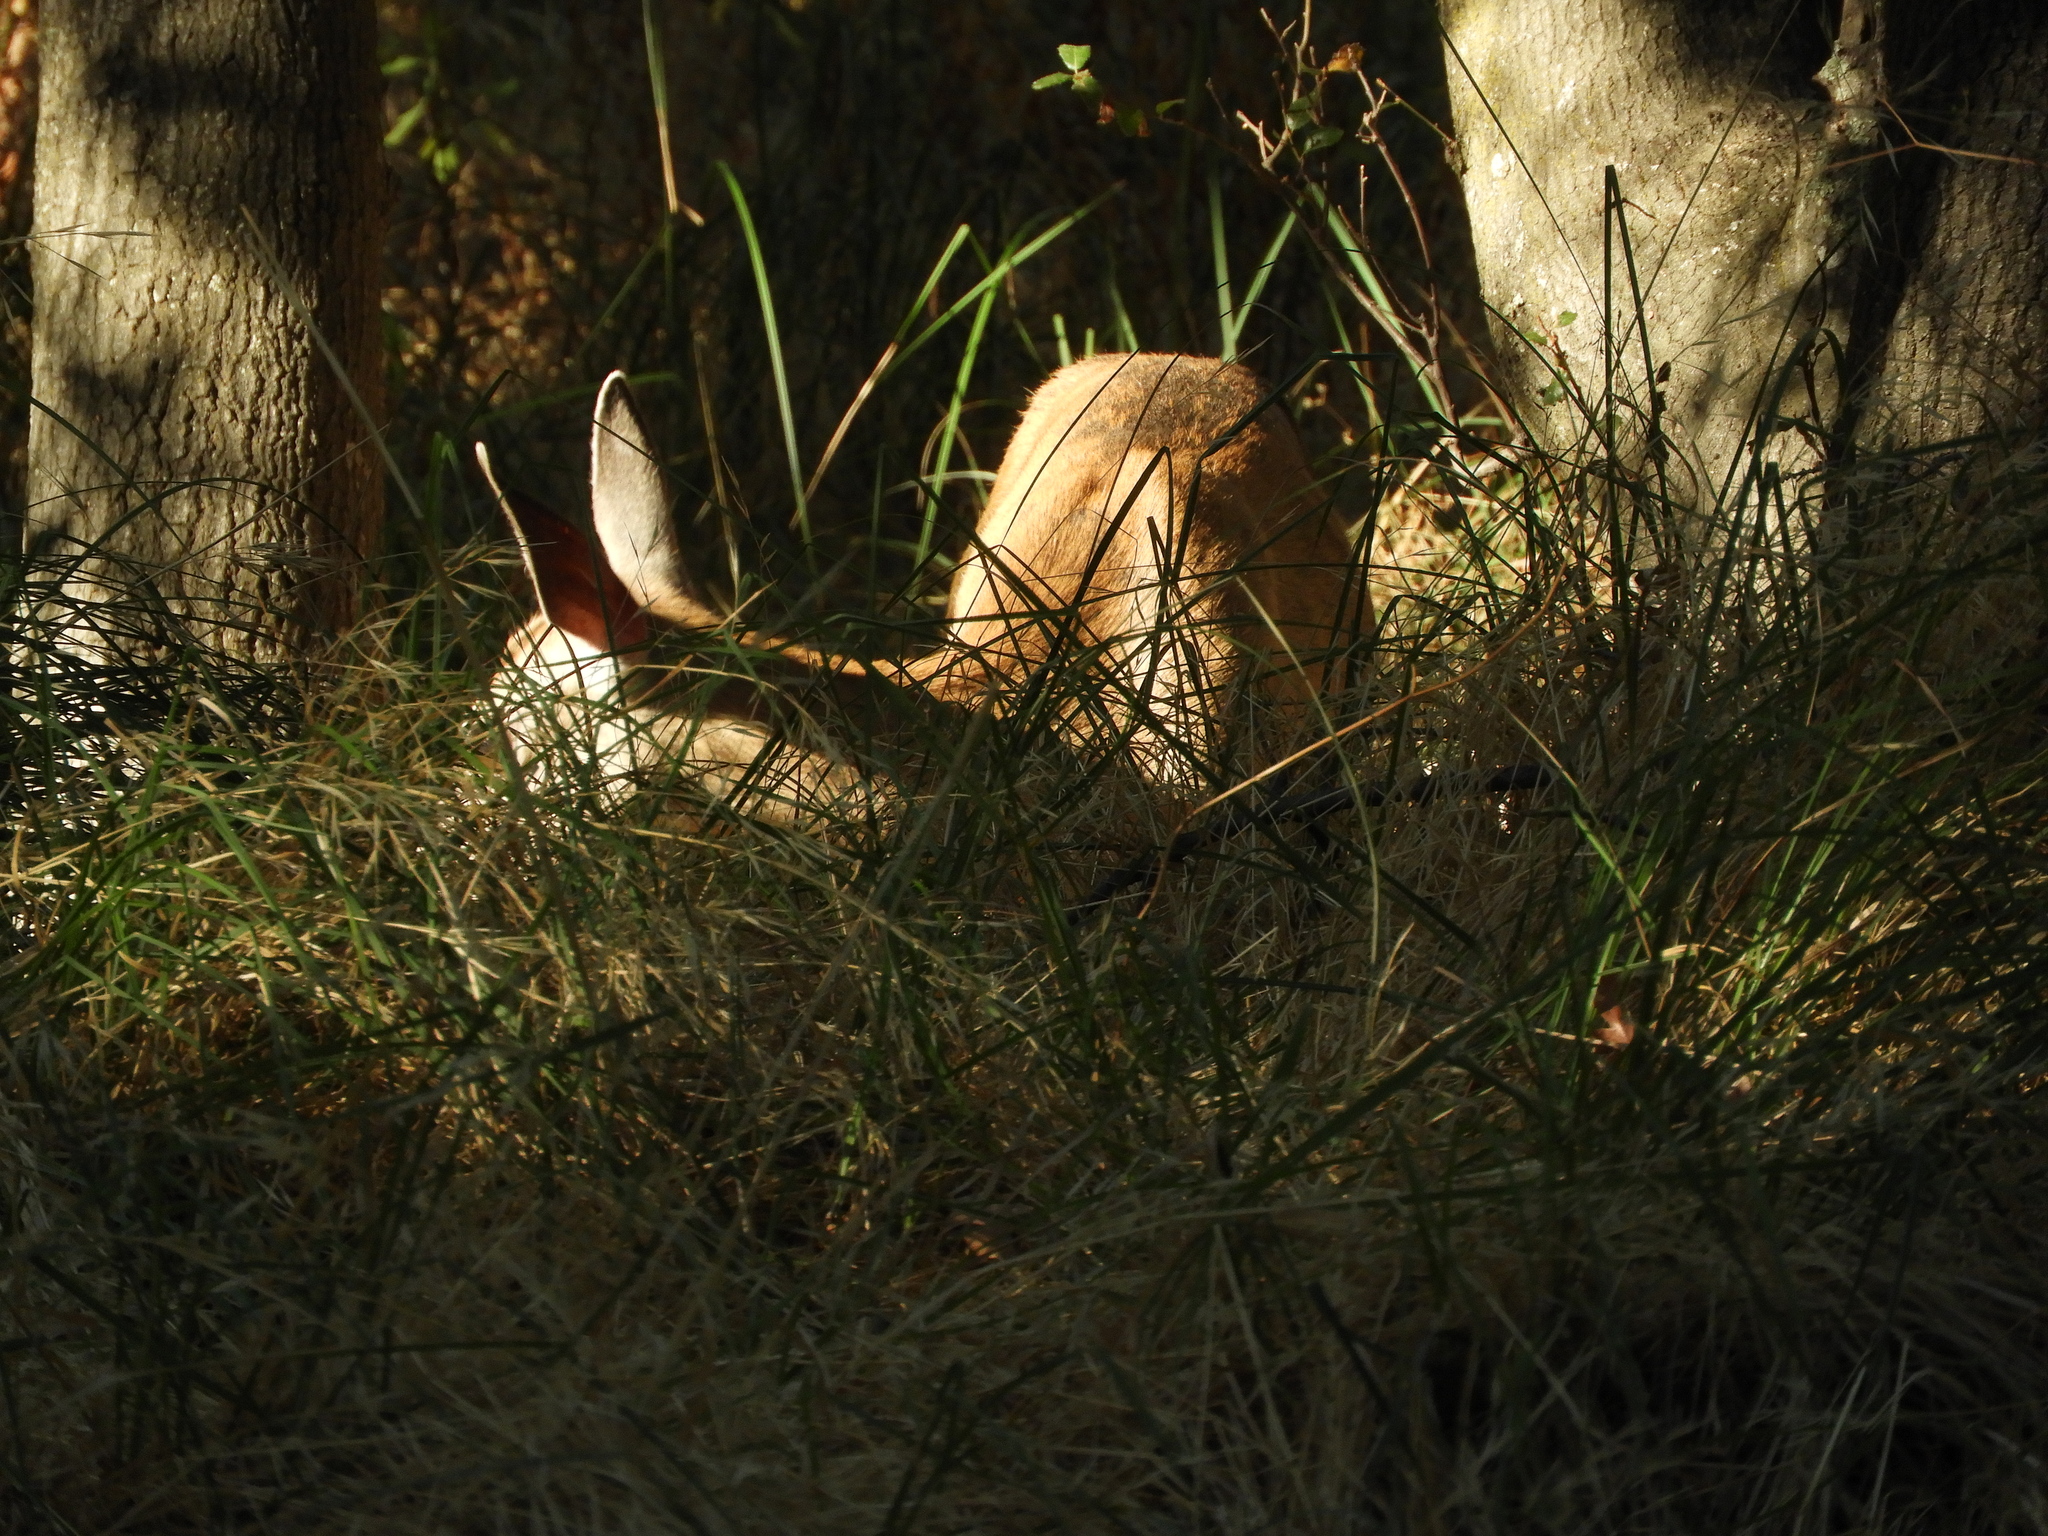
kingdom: Animalia
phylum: Chordata
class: Mammalia
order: Artiodactyla
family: Cervidae
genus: Odocoileus
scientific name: Odocoileus hemionus
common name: Mule deer
